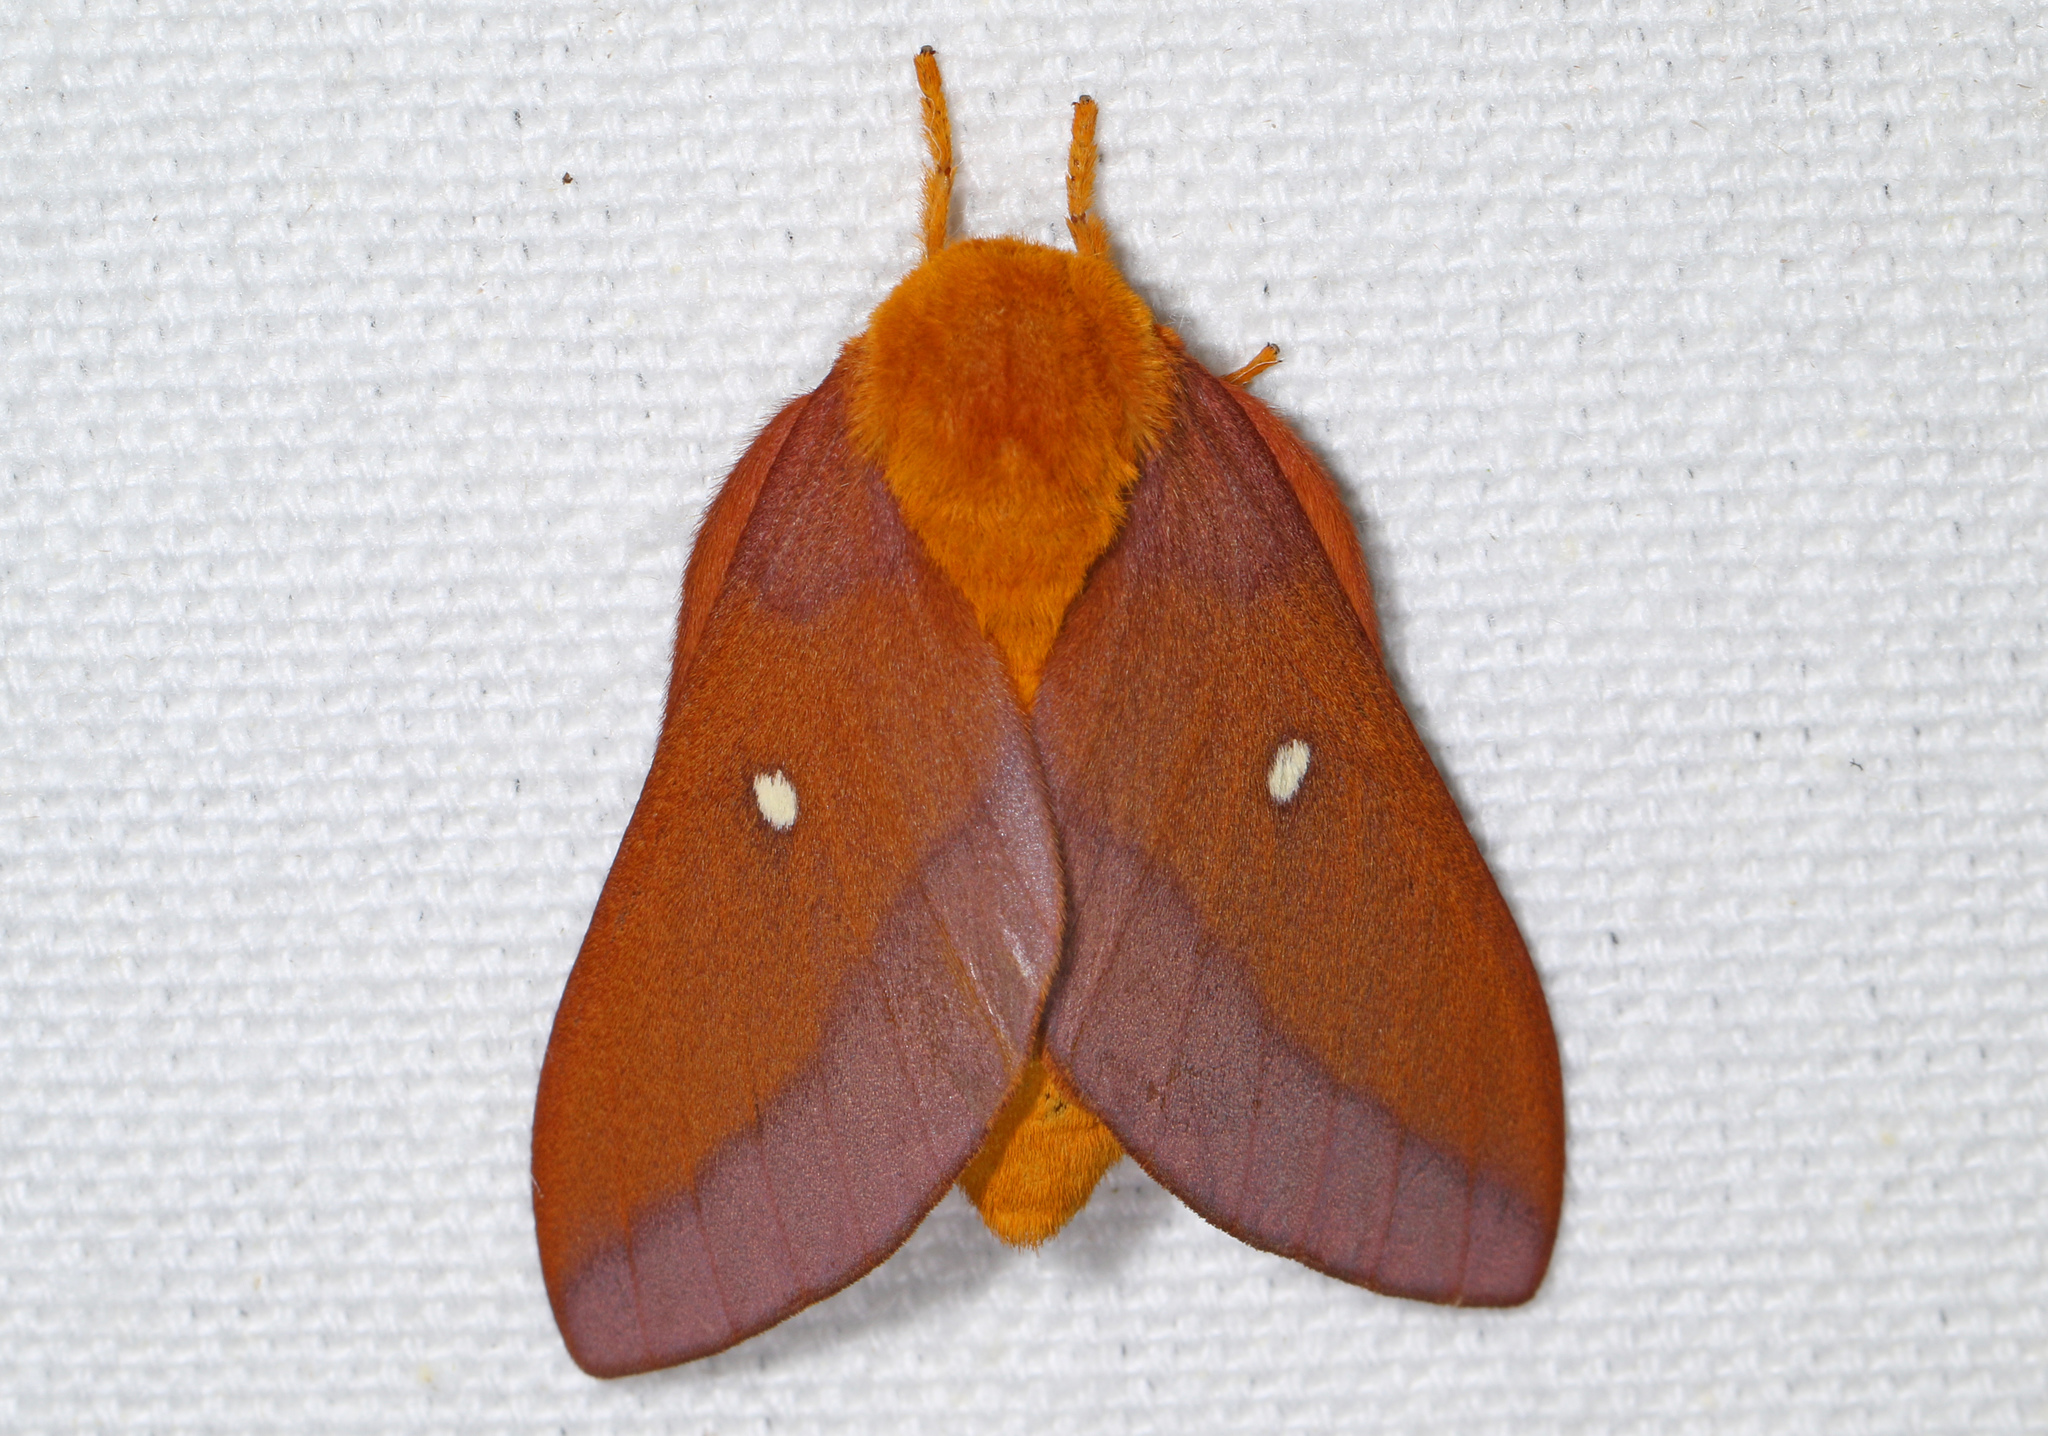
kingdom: Animalia
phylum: Arthropoda
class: Insecta
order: Lepidoptera
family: Saturniidae
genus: Anisota
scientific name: Anisota virginiensis
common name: Pink striped oakworm moth
